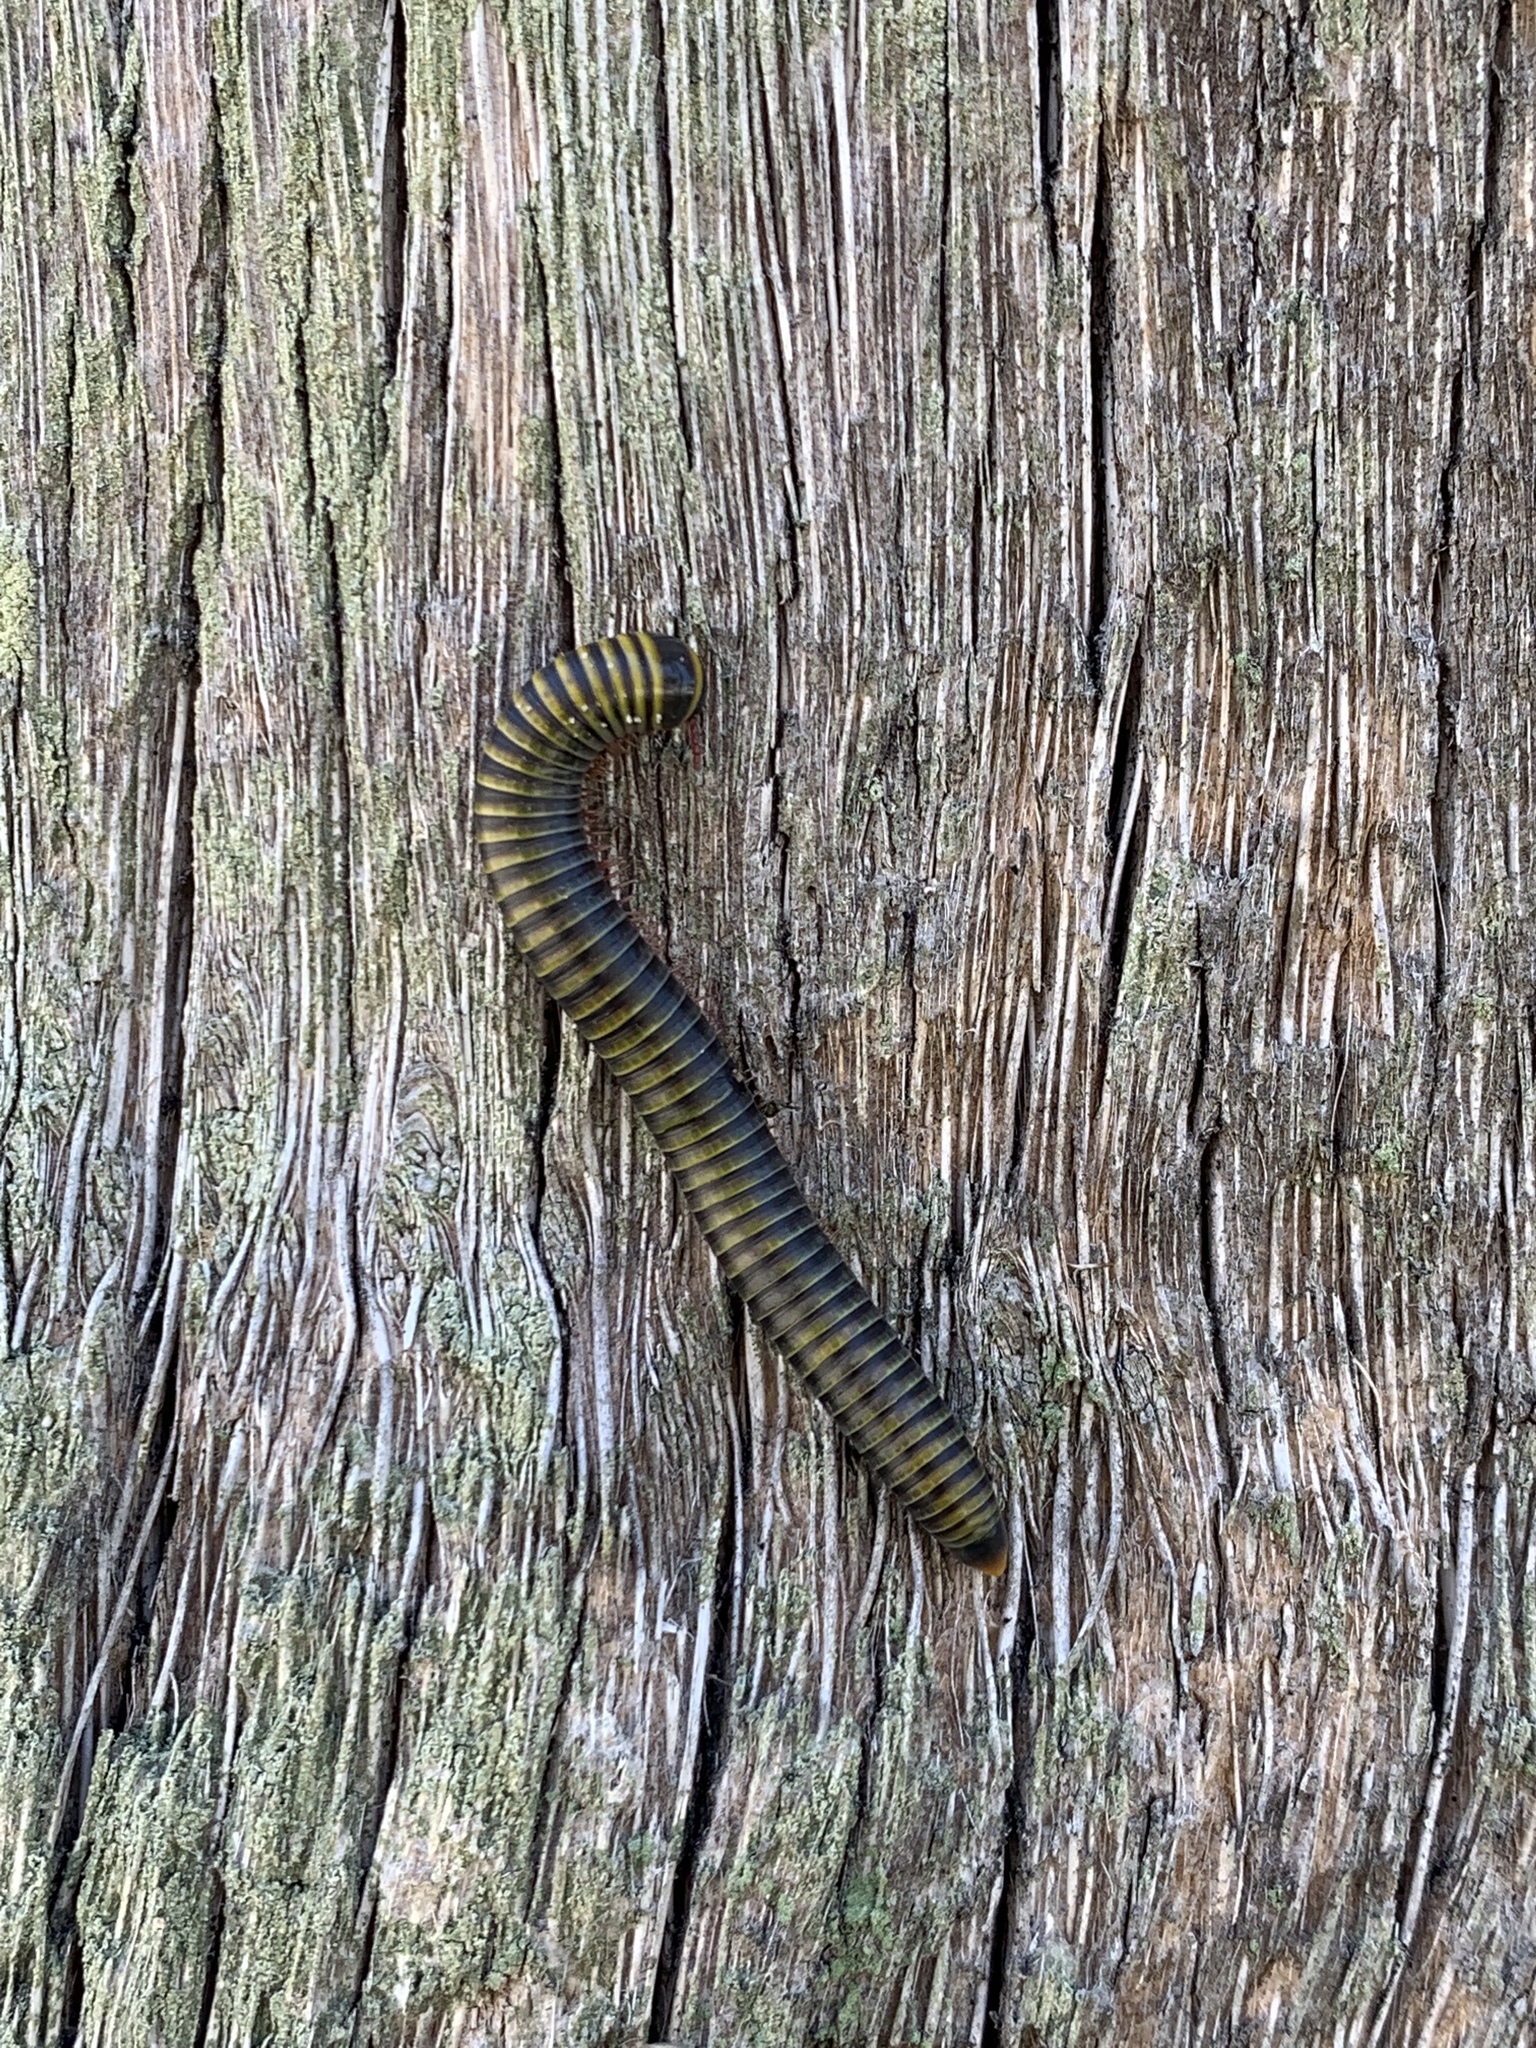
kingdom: Animalia
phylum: Arthropoda
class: Diplopoda
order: Spirobolida
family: Rhinocricidae
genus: Anadenobolus
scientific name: Anadenobolus monilicornis
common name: Caribbean millipede
